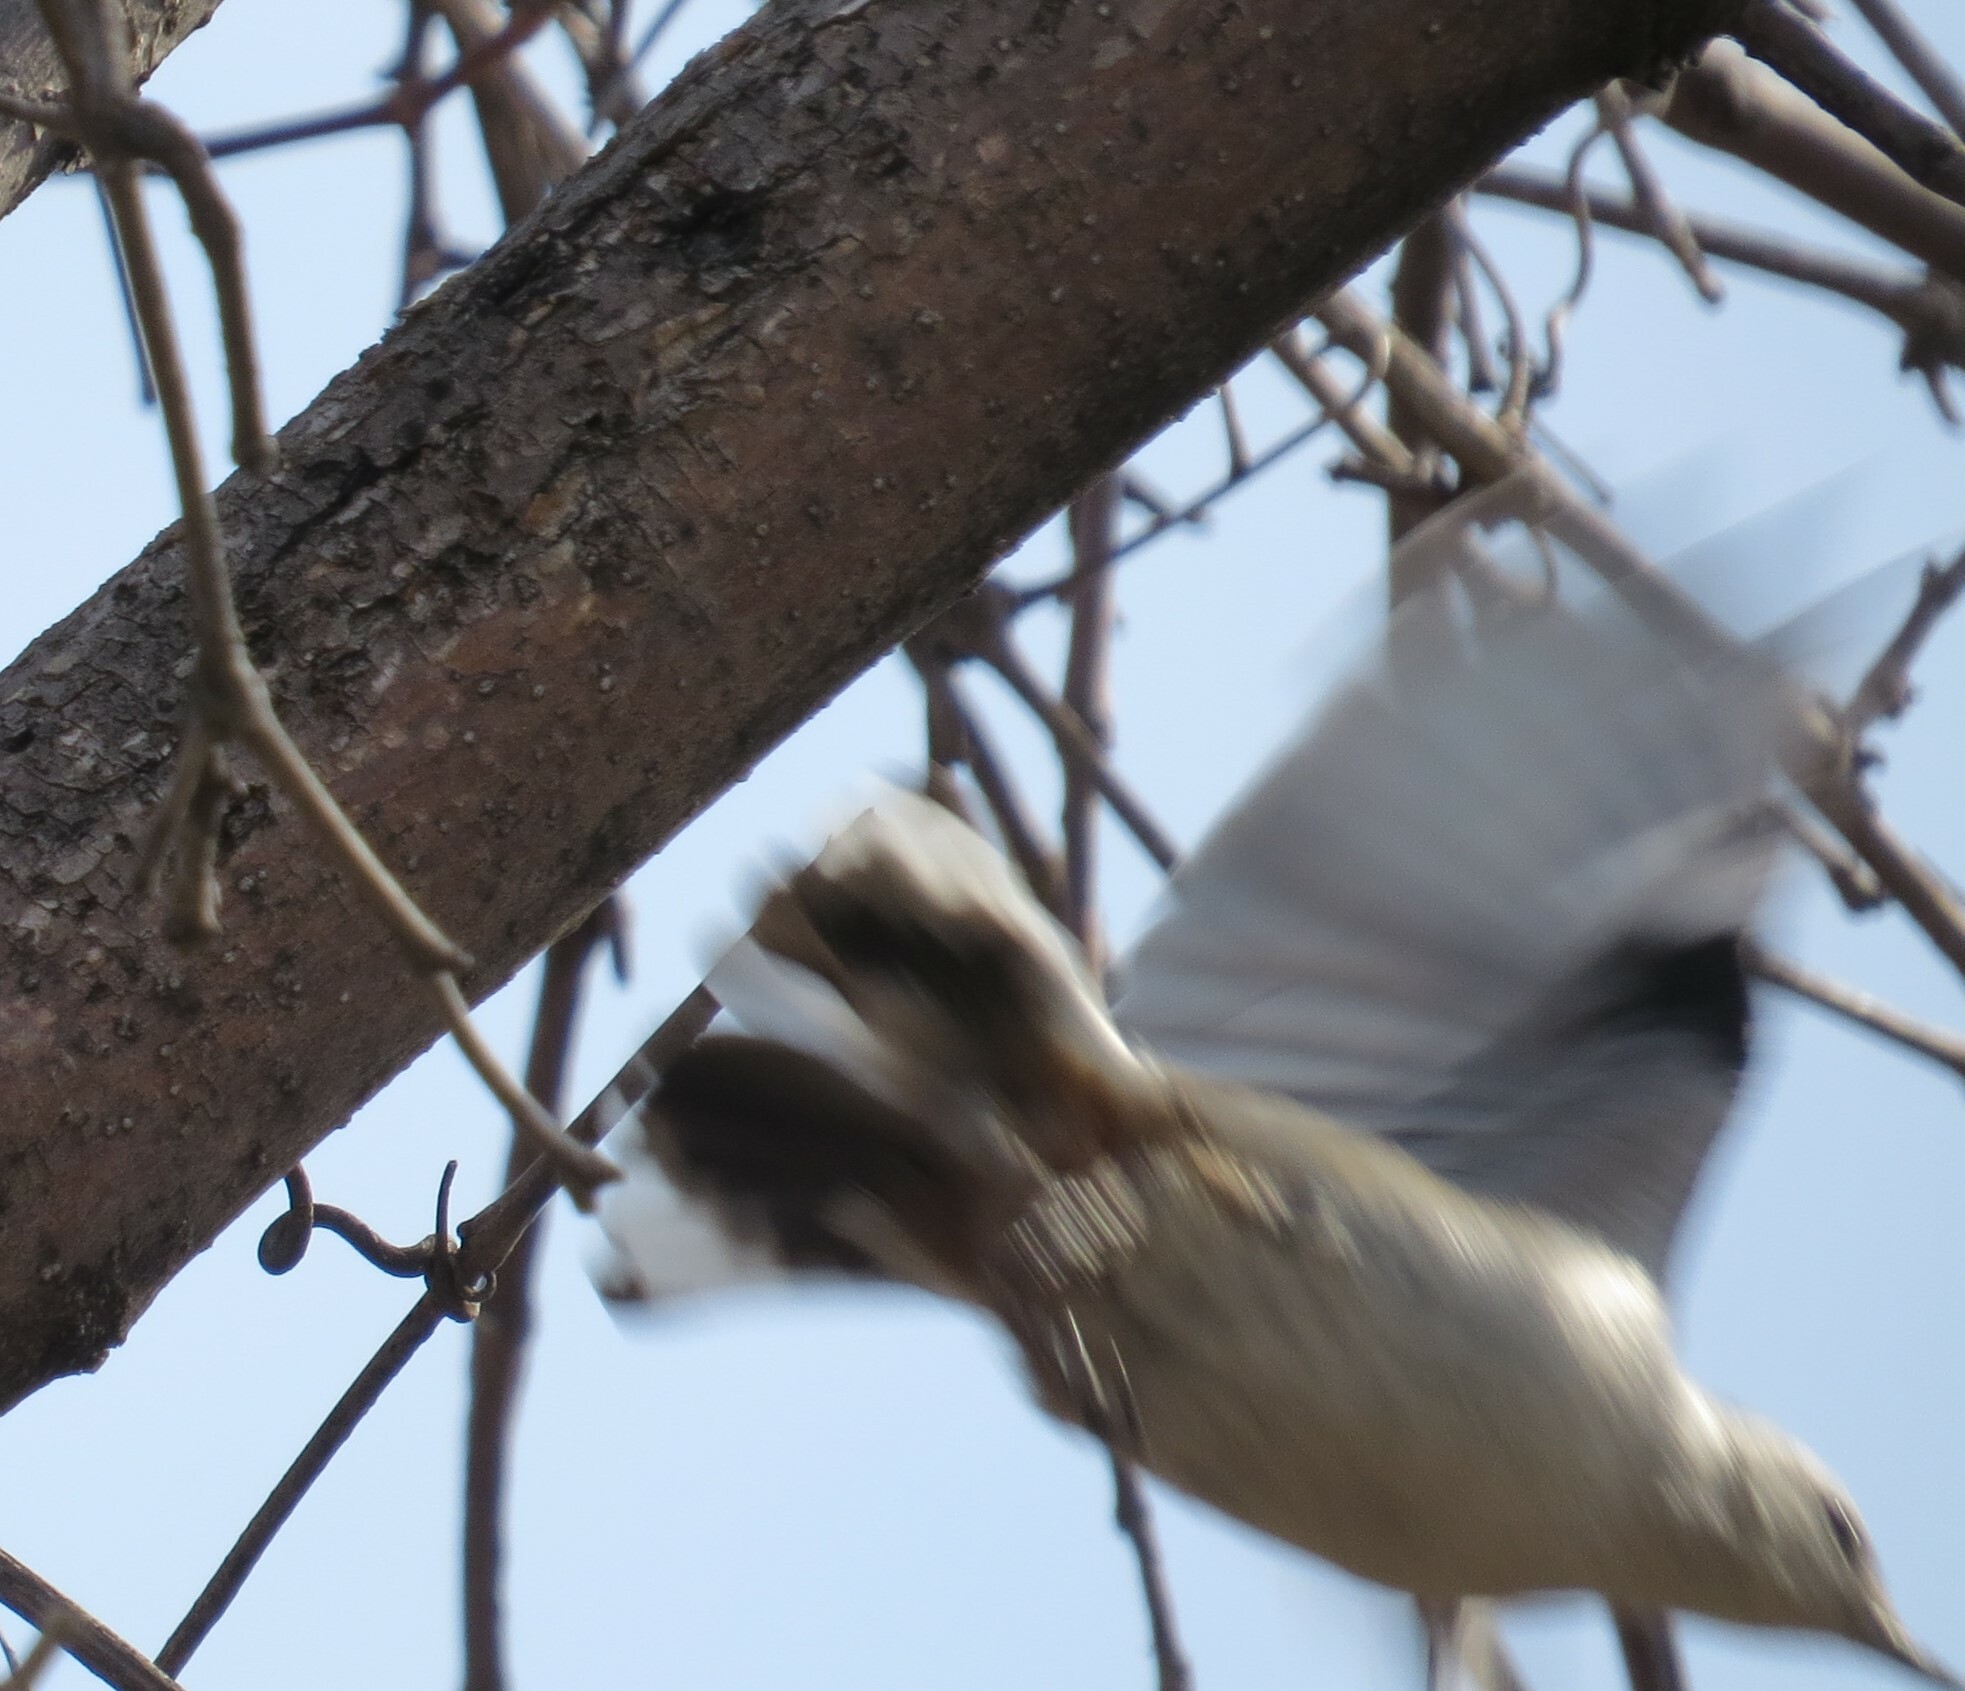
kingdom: Animalia
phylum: Chordata
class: Aves
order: Passeriformes
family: Sittidae
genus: Sitta
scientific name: Sitta carolinensis
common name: White-breasted nuthatch
